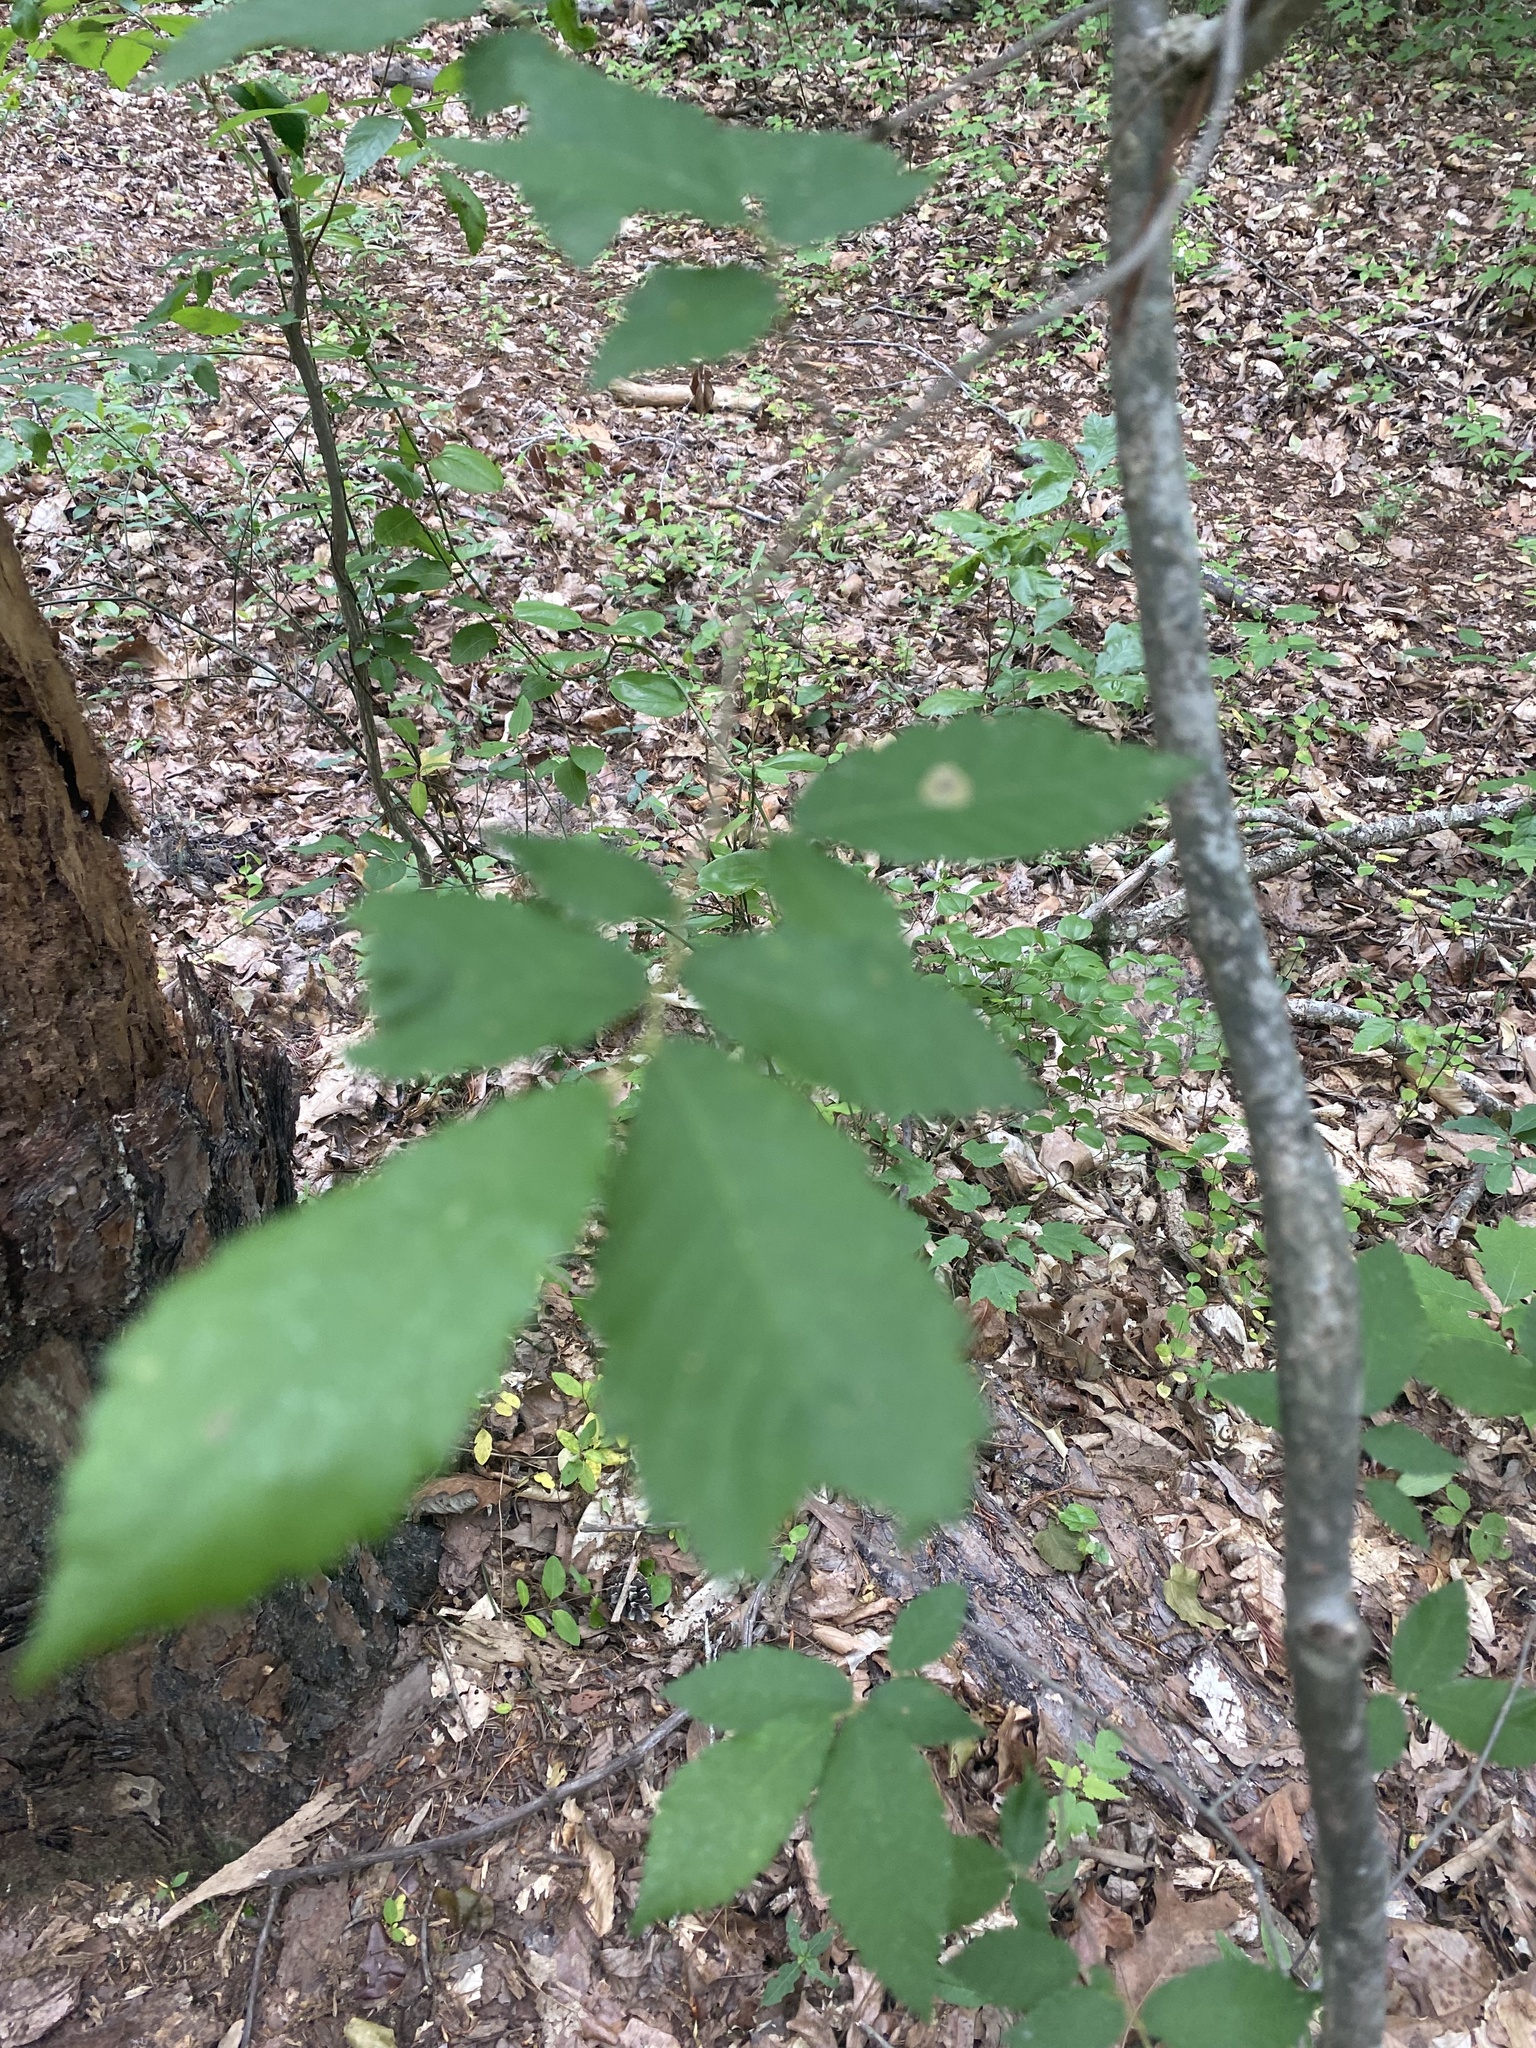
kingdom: Animalia
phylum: Arthropoda
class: Insecta
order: Lepidoptera
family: Gracillariidae
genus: Cameraria
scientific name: Cameraria ulmella
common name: Elm leafminer
